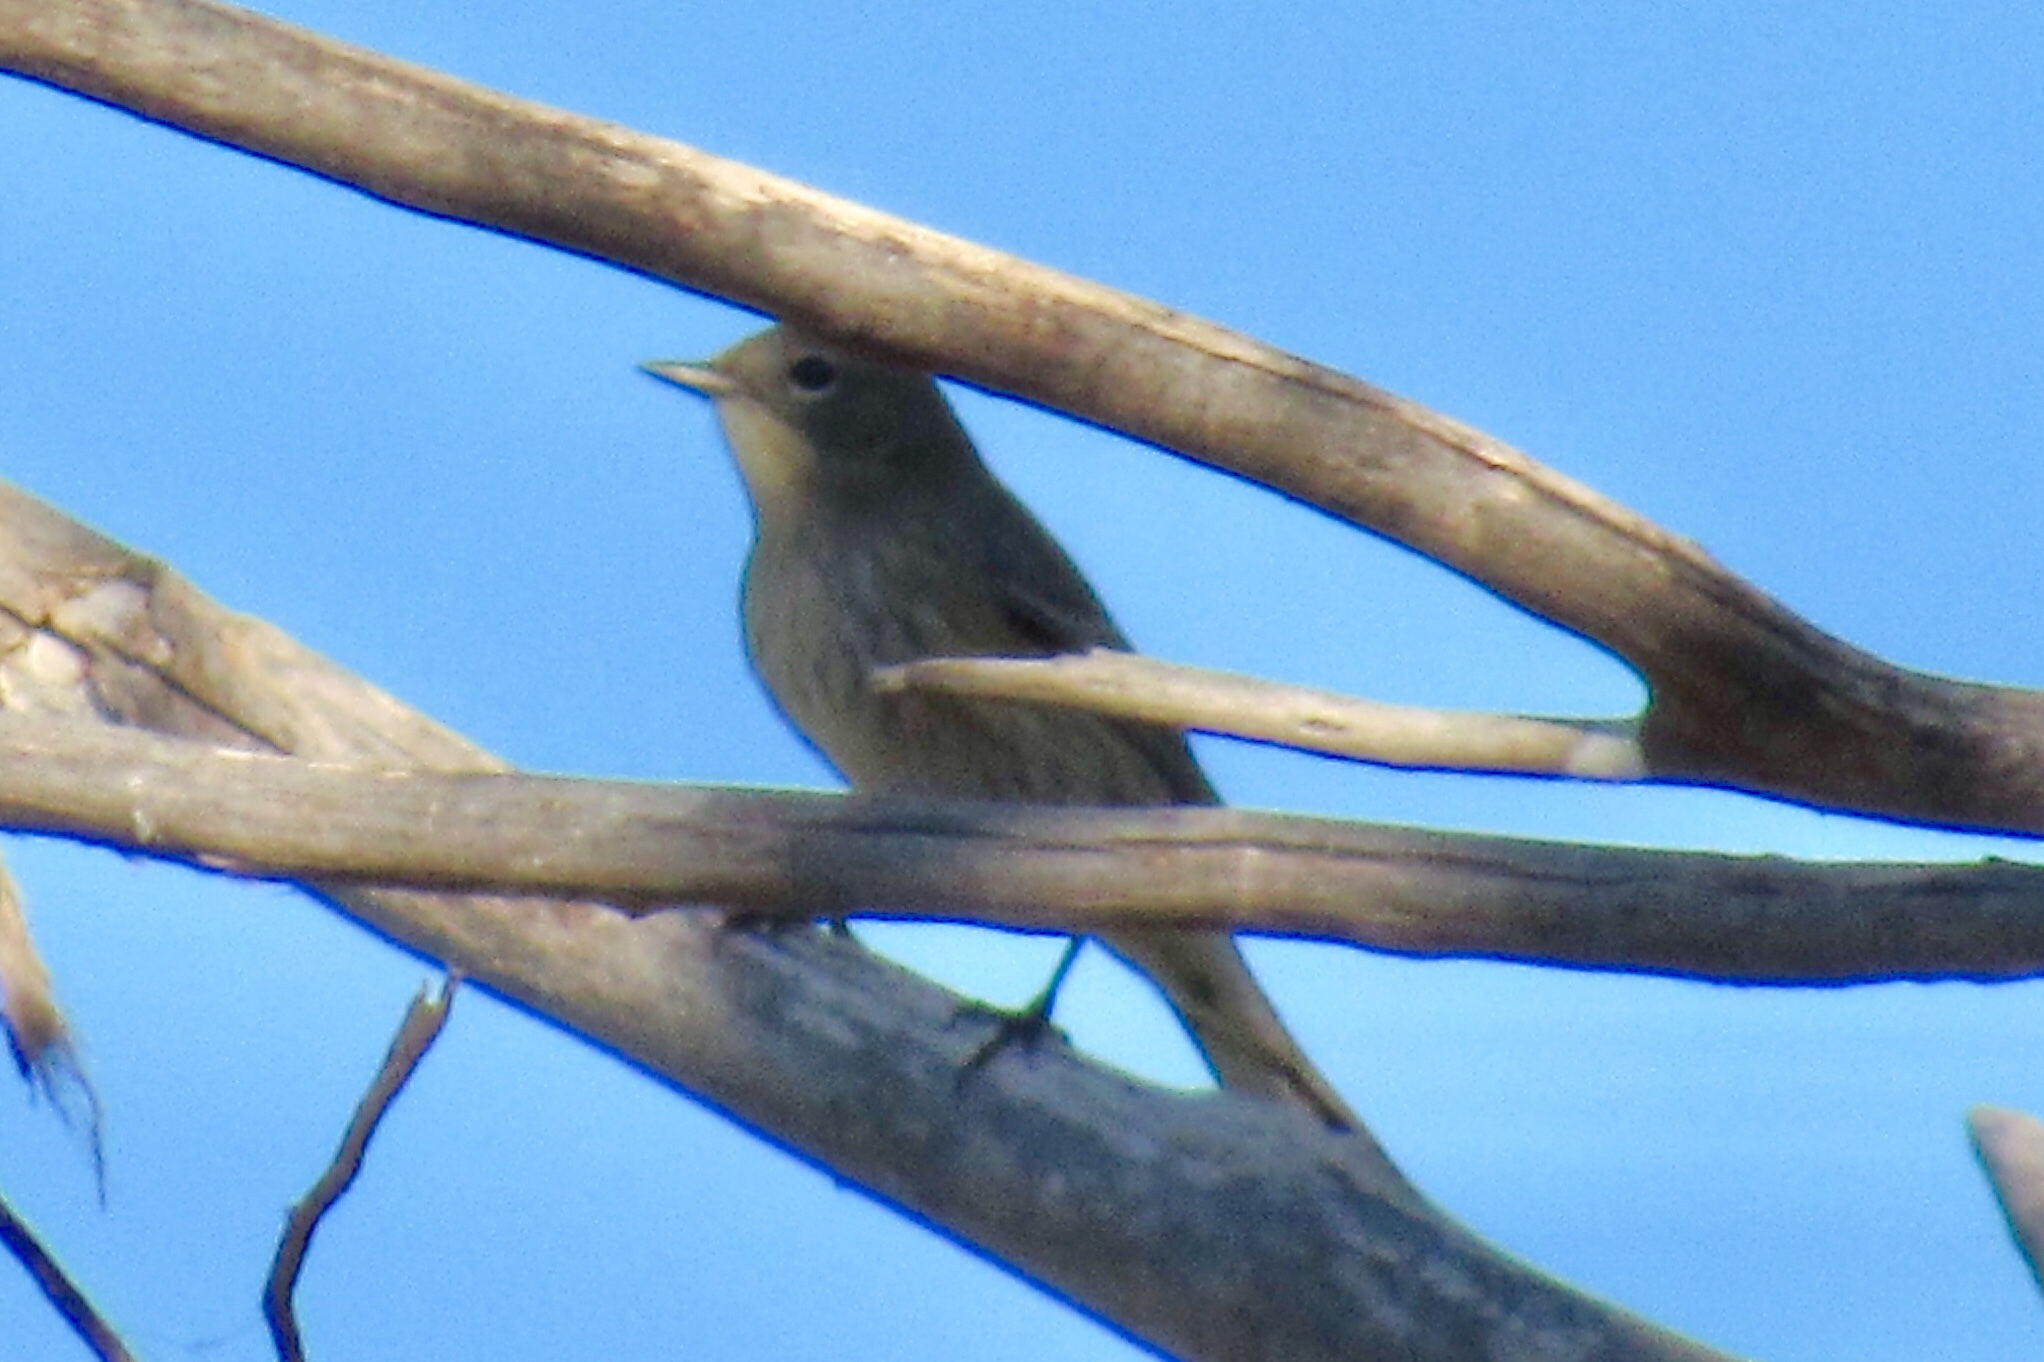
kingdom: Animalia
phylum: Chordata
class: Aves
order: Passeriformes
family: Parulidae
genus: Setophaga
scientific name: Setophaga coronata
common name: Myrtle warbler
